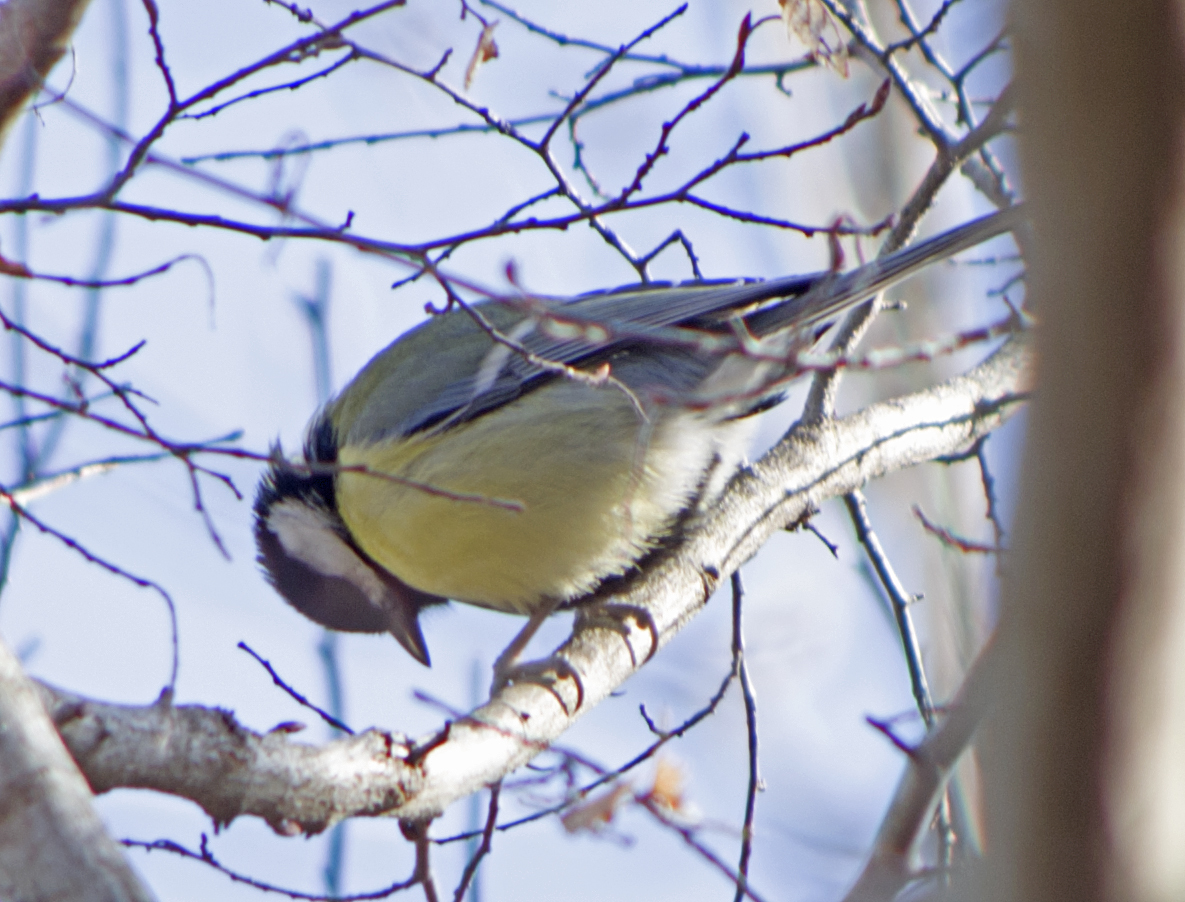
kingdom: Animalia
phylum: Chordata
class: Aves
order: Passeriformes
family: Paridae
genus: Parus
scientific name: Parus major
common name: Great tit
